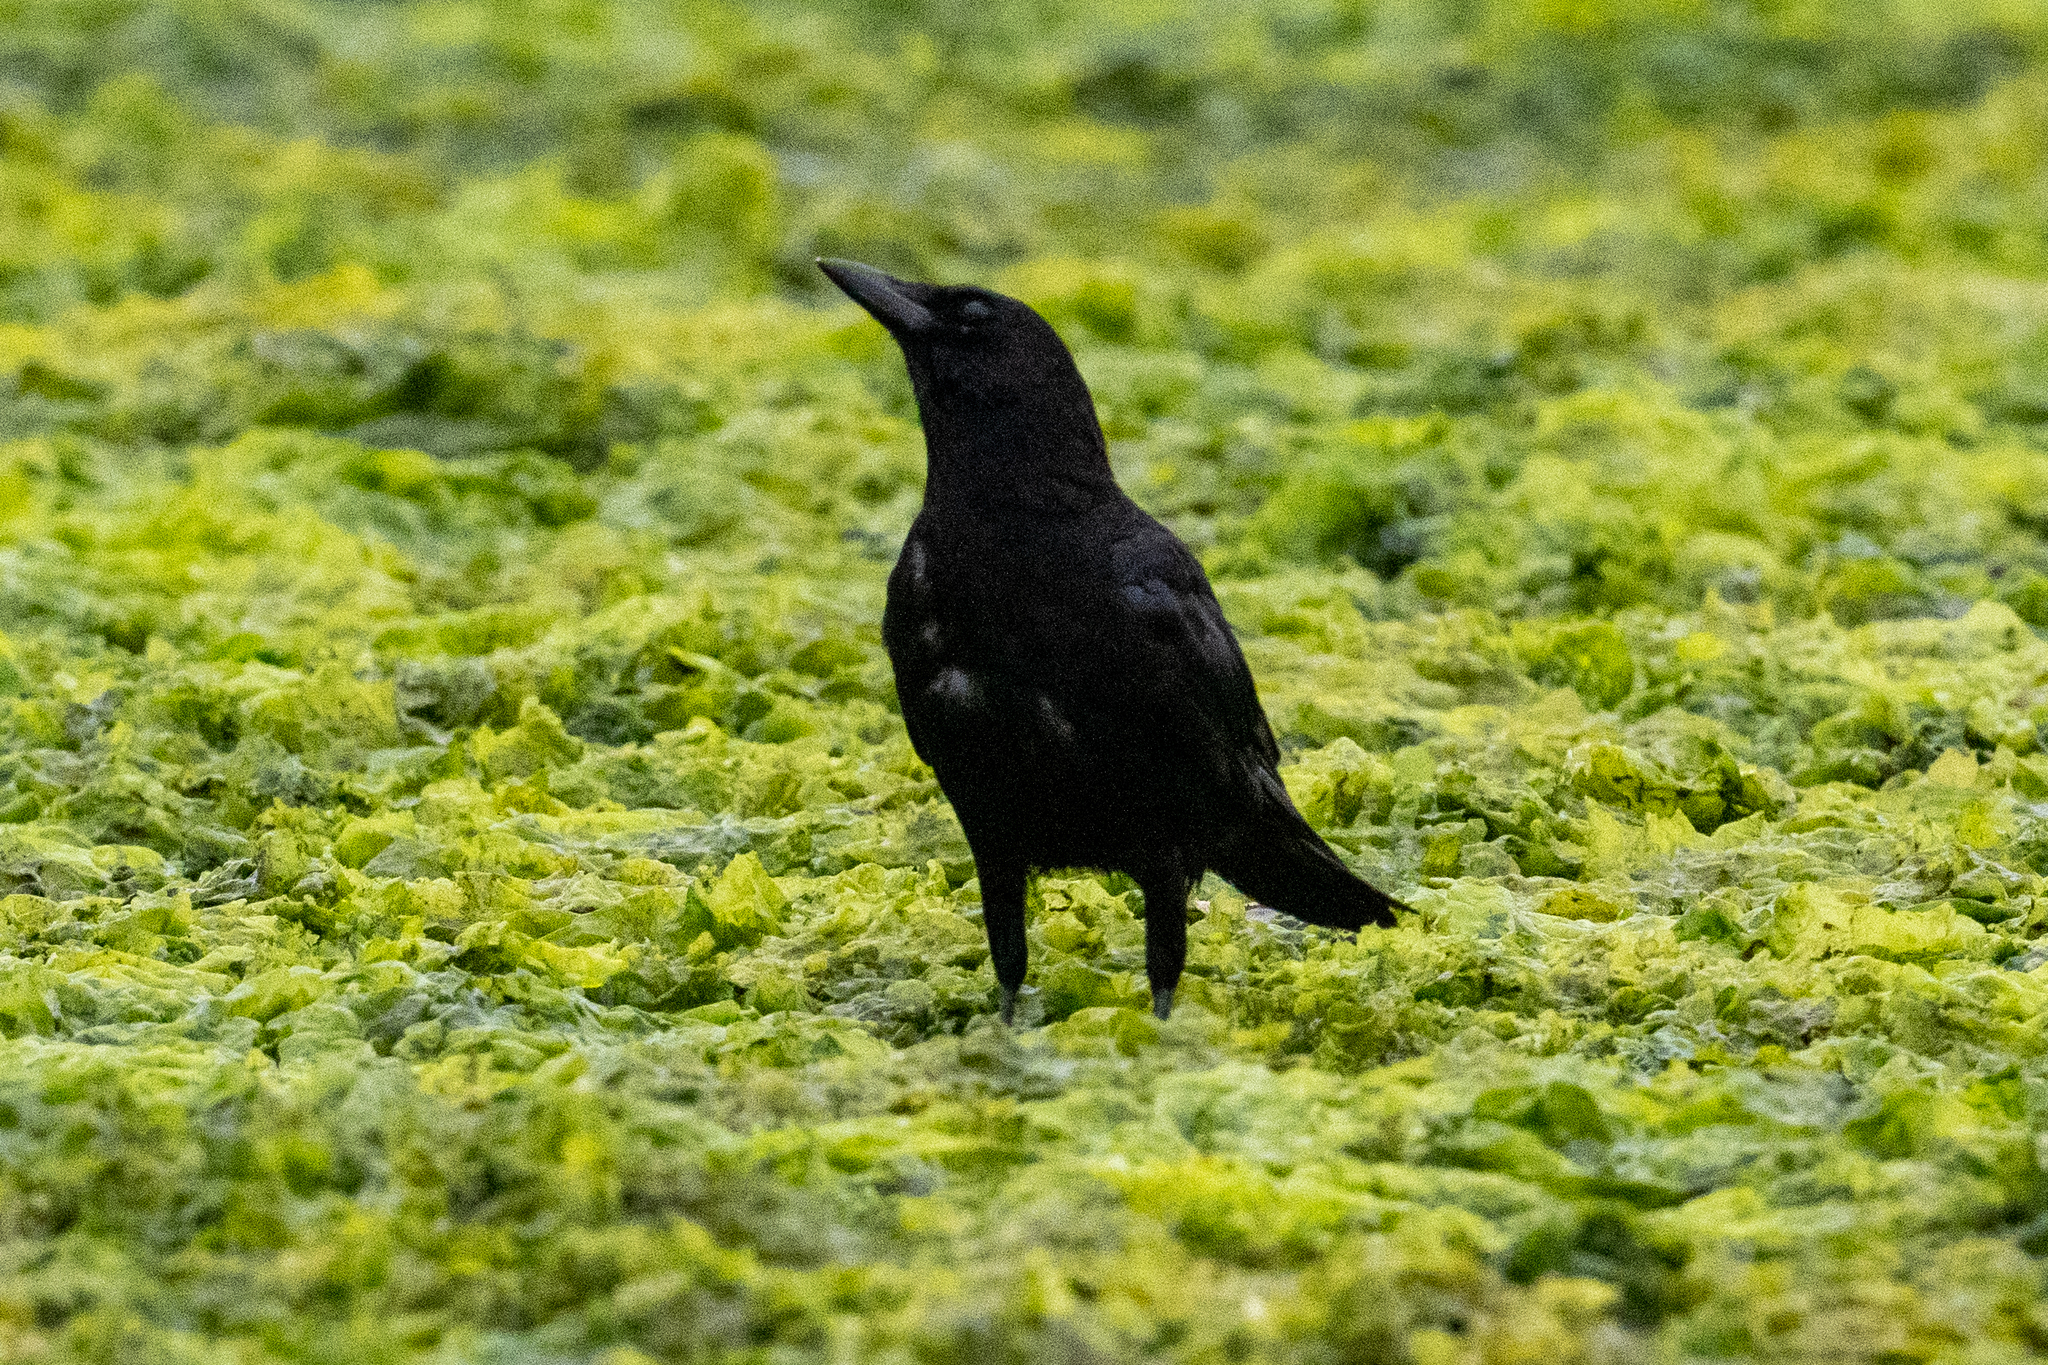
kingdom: Animalia
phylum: Chordata
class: Aves
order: Passeriformes
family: Corvidae
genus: Corvus
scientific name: Corvus brachyrhynchos
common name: American crow
